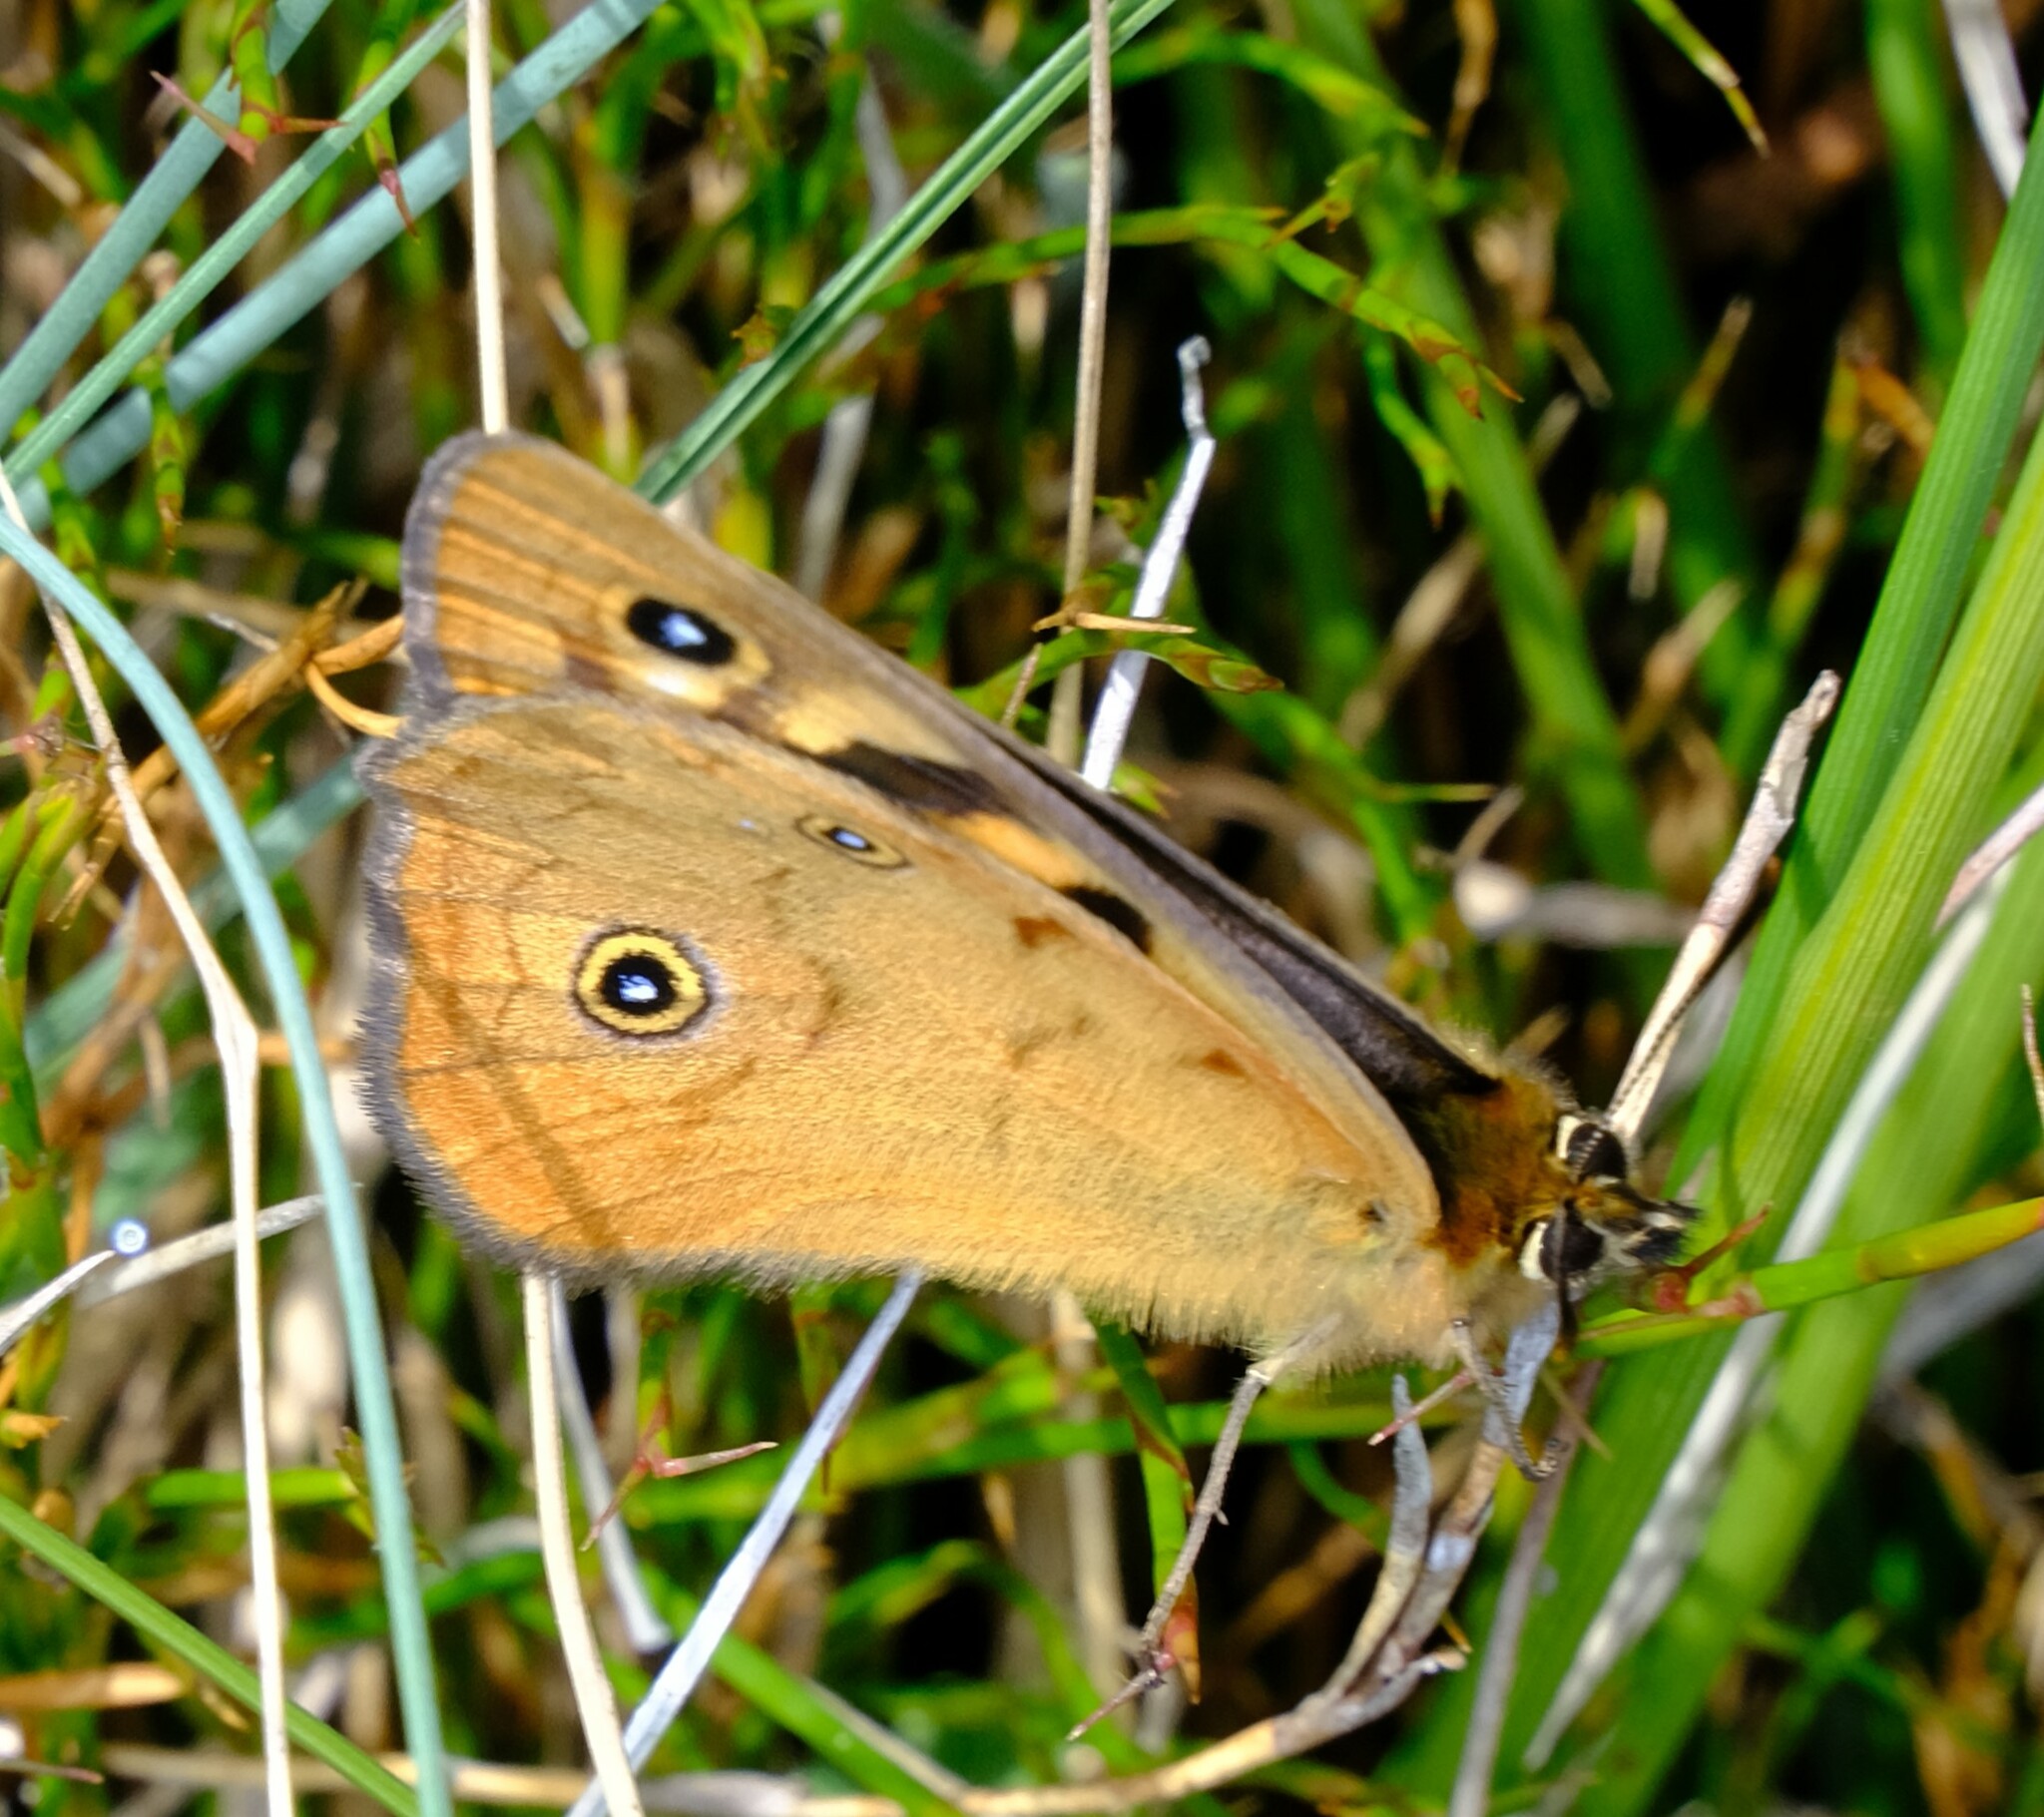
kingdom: Animalia
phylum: Arthropoda
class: Insecta
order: Lepidoptera
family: Nymphalidae
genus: Heteronympha
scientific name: Heteronympha penelope
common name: Shouldered brown
